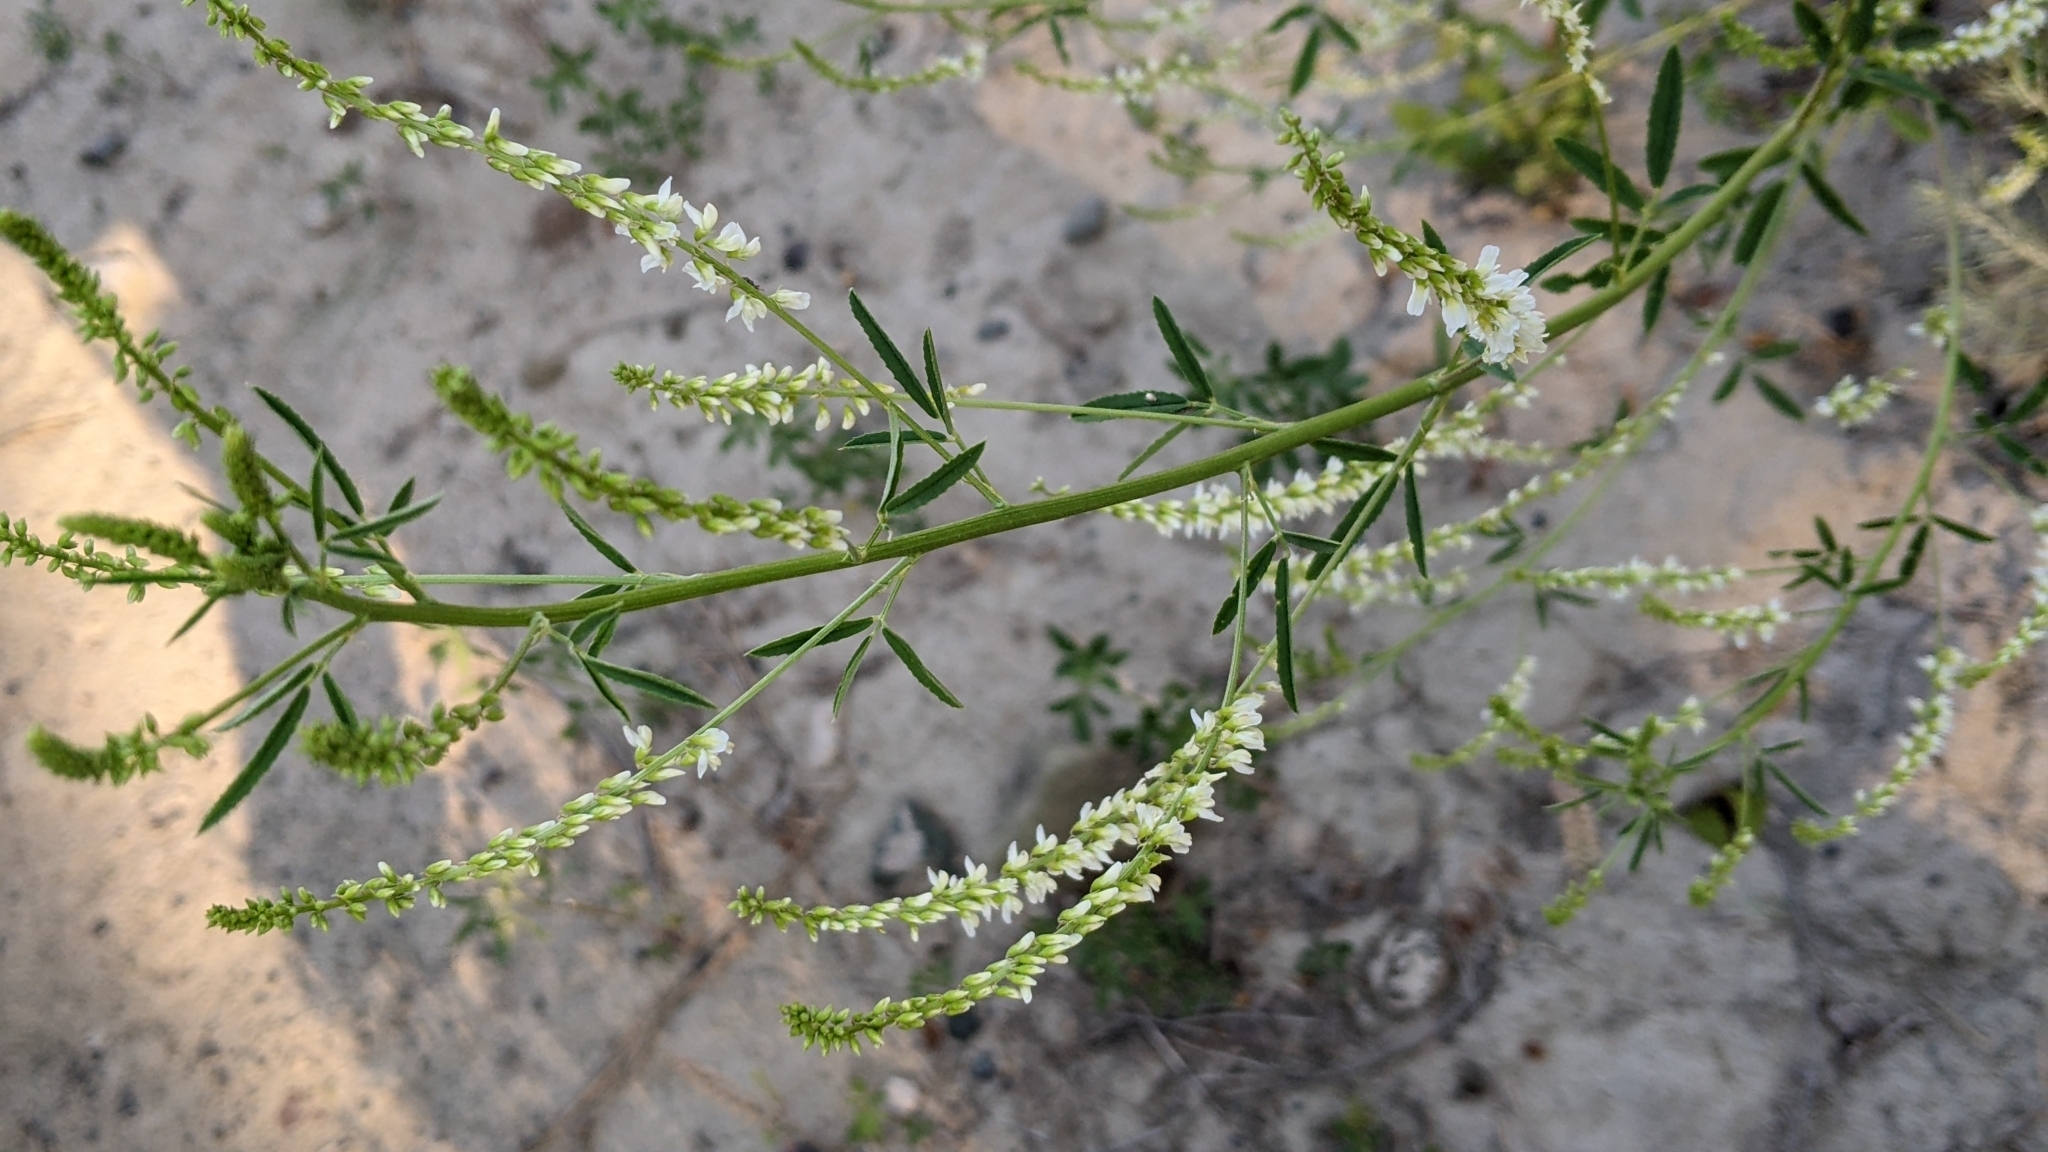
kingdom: Plantae
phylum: Tracheophyta
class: Magnoliopsida
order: Fabales
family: Fabaceae
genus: Melilotus
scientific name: Melilotus albus
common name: White melilot
